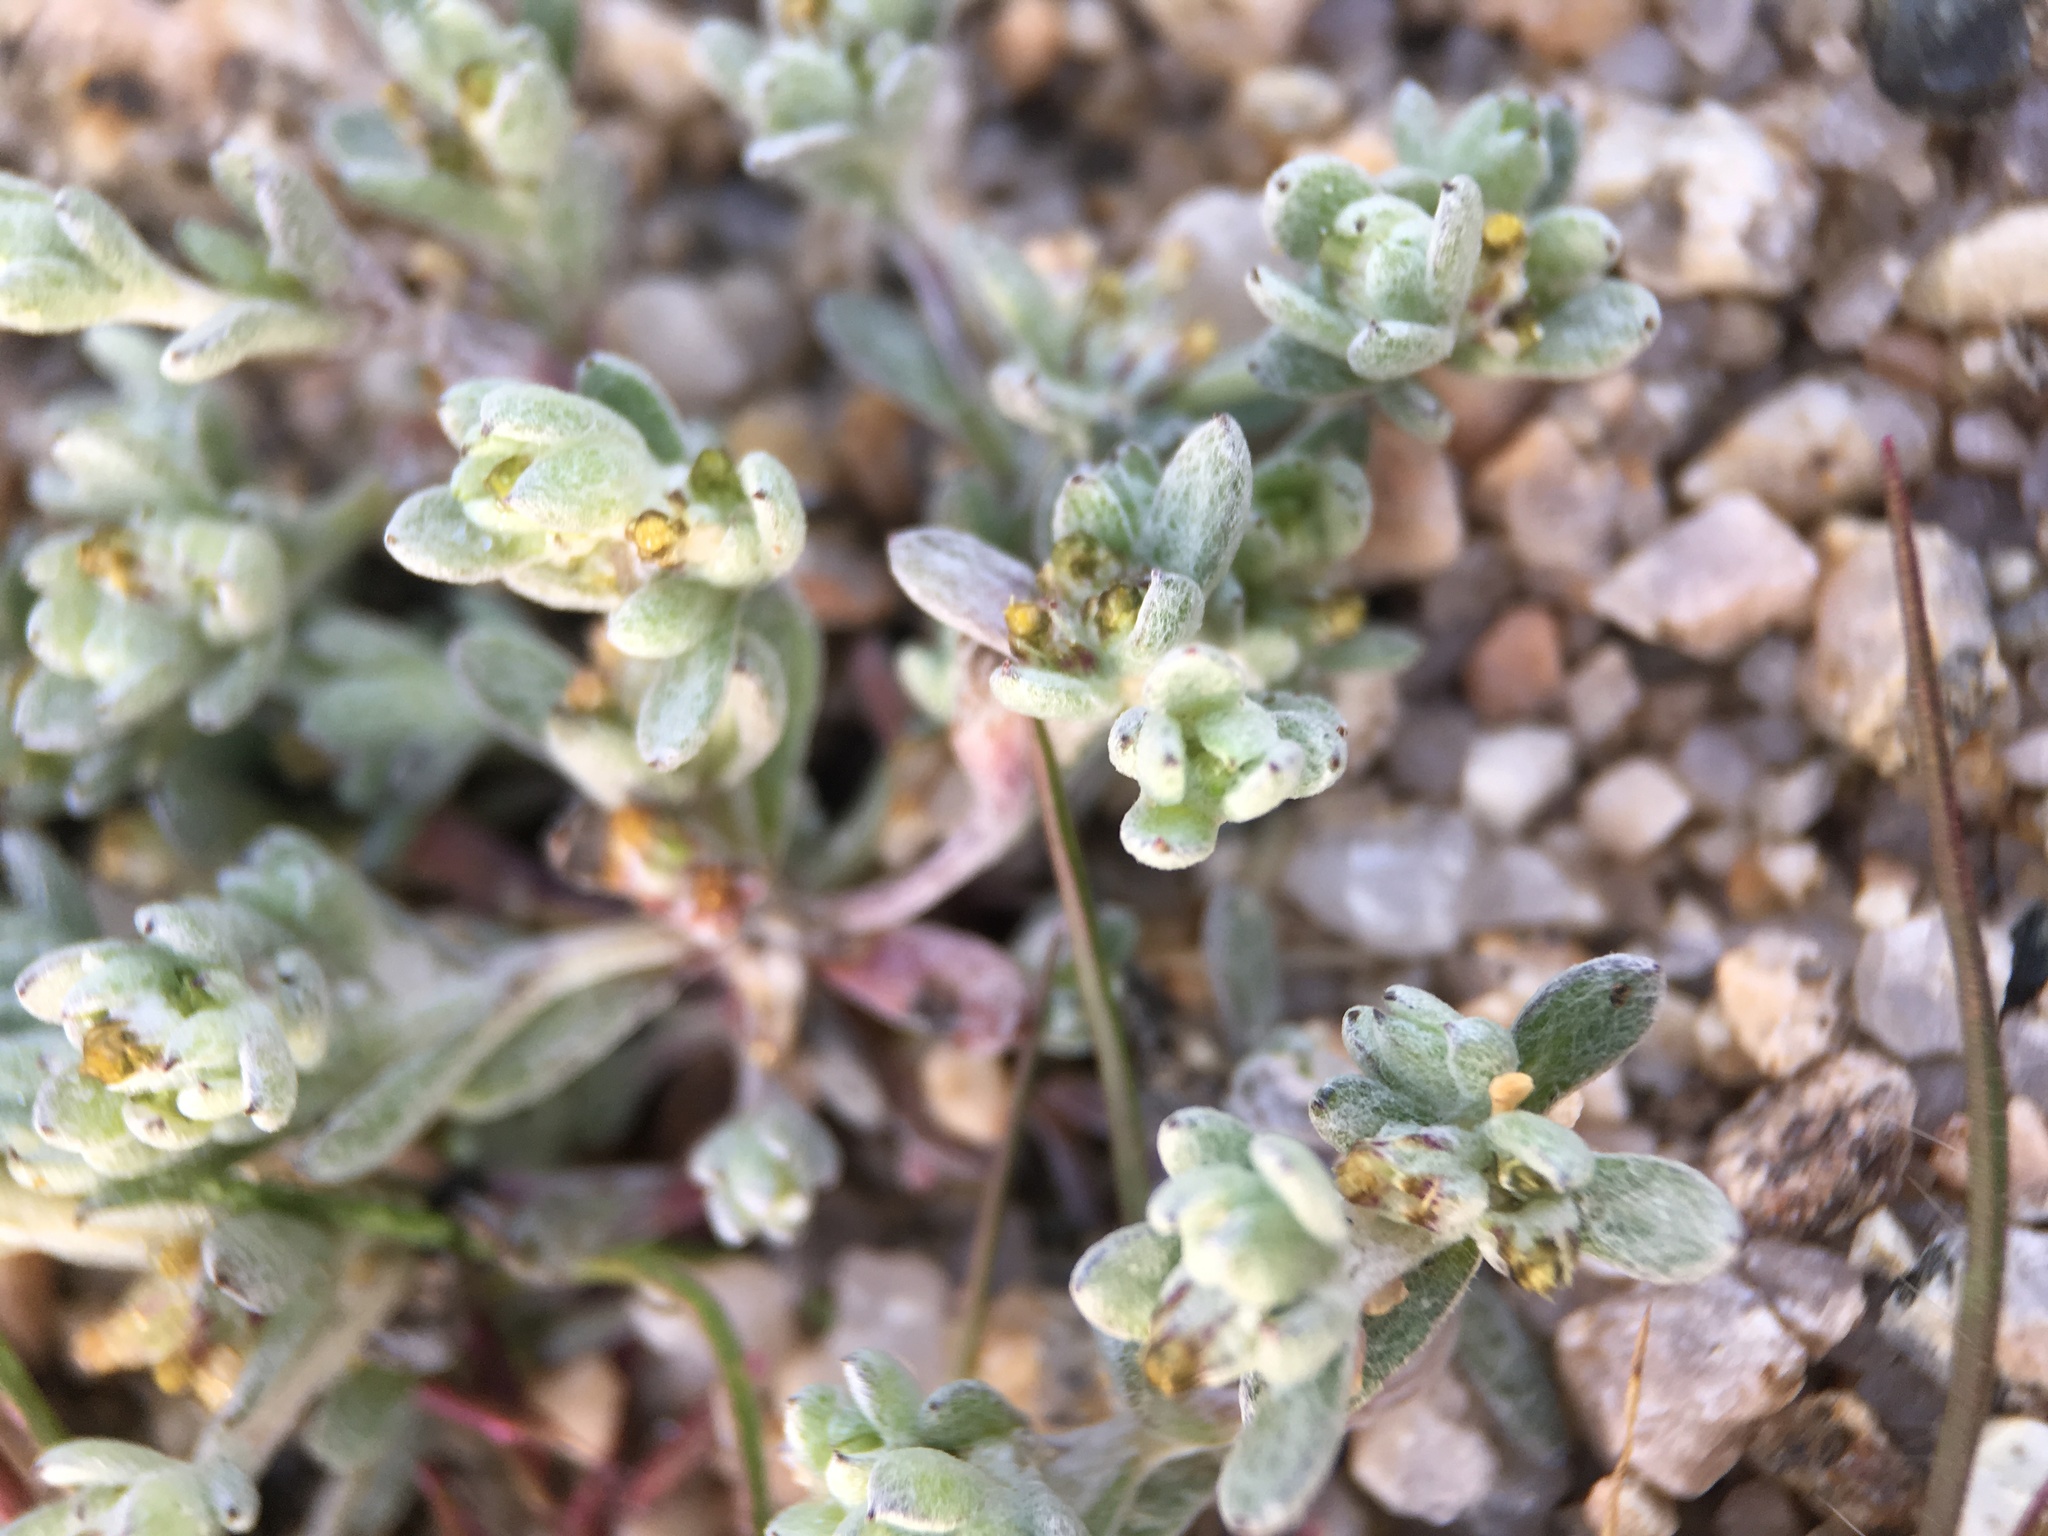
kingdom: Plantae
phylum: Tracheophyta
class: Magnoliopsida
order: Asterales
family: Asteraceae
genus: Logfia
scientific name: Logfia depressa
